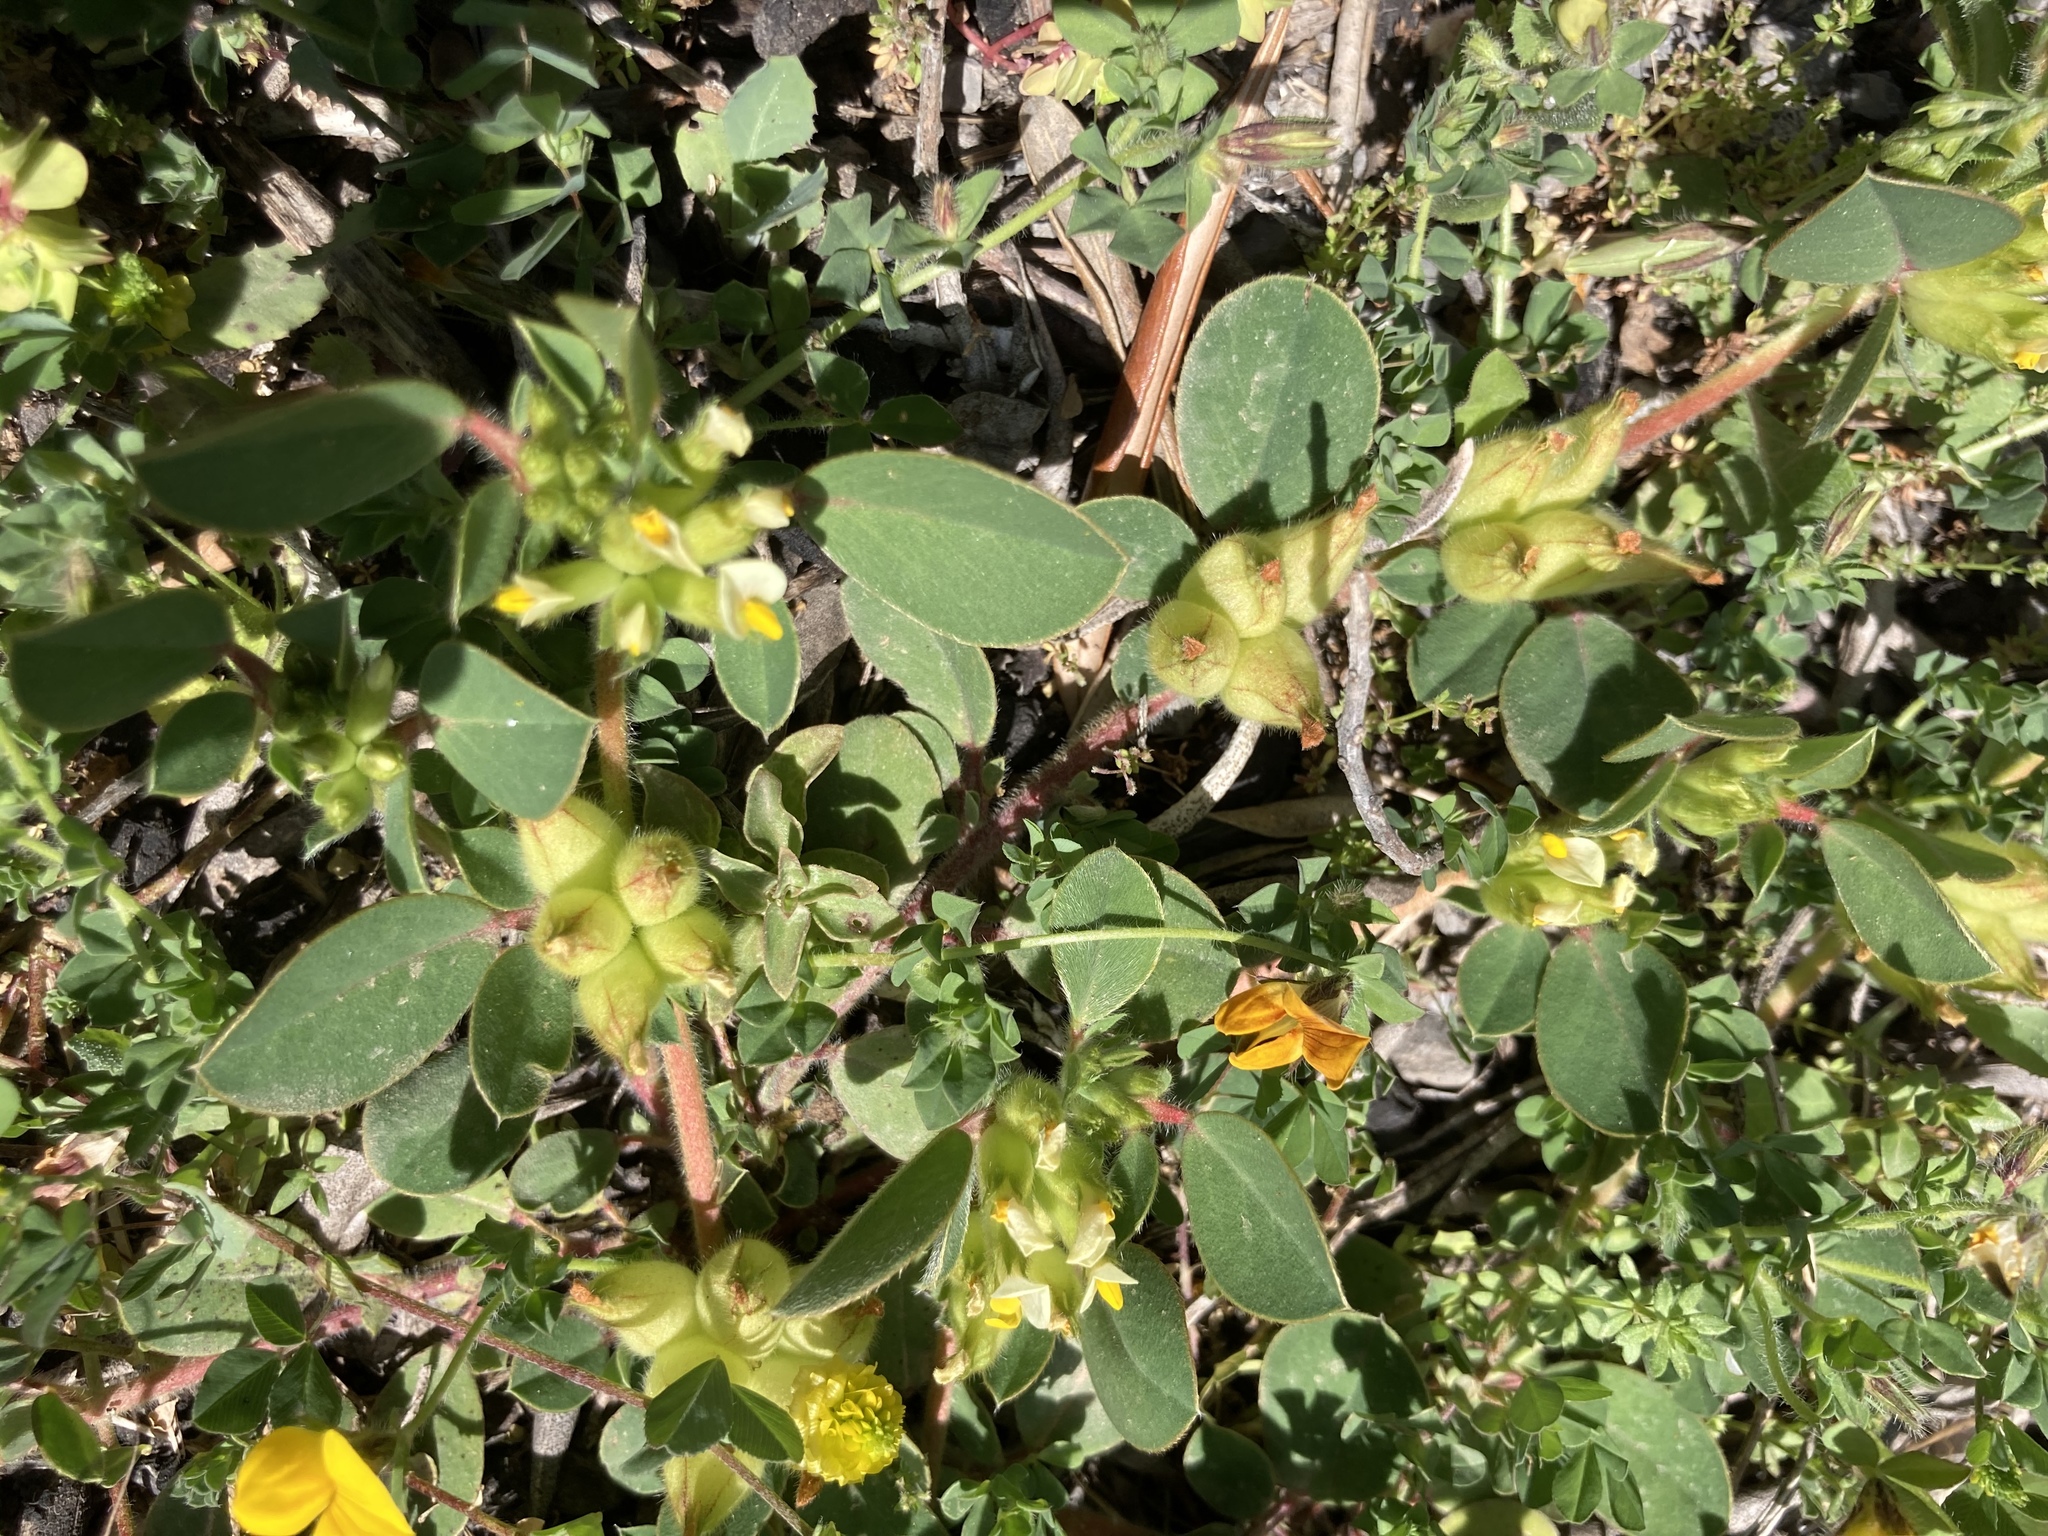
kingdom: Plantae
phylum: Tracheophyta
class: Magnoliopsida
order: Fabales
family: Fabaceae
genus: Tripodion
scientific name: Tripodion tetraphyllum
